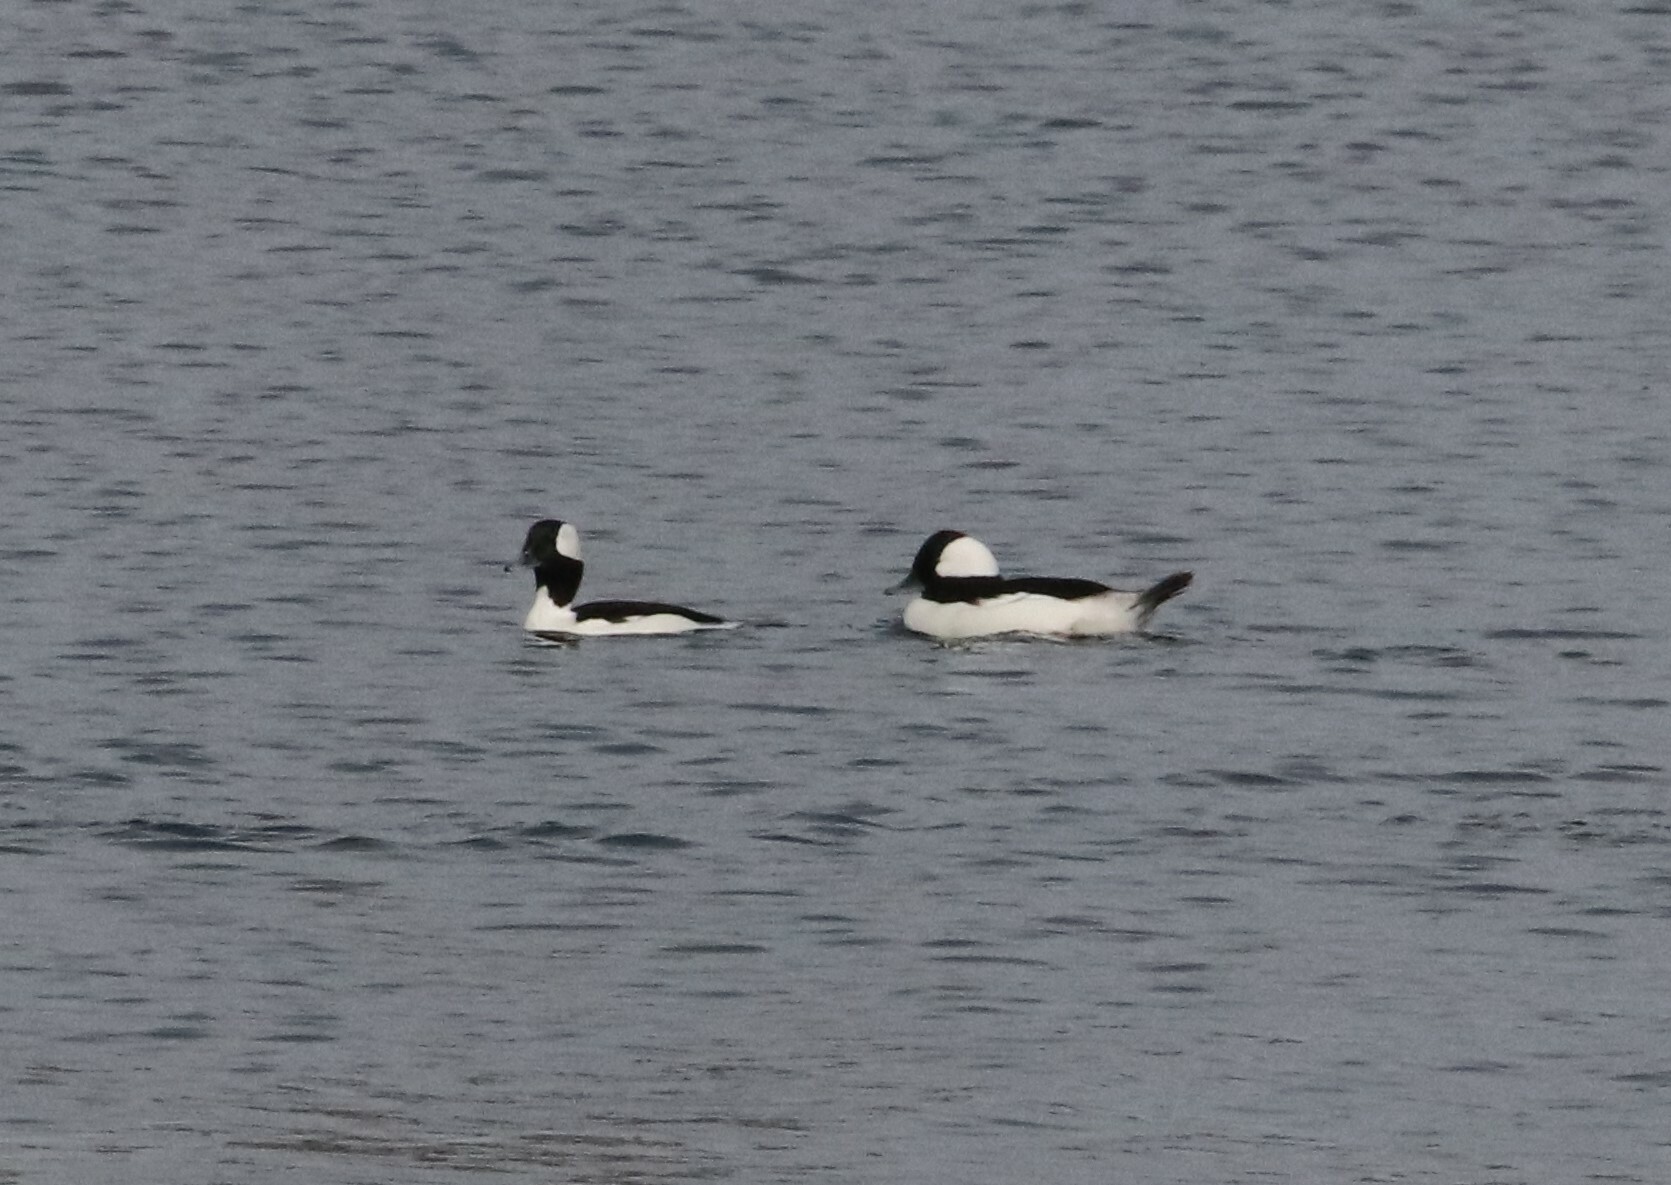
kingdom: Animalia
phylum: Chordata
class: Aves
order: Anseriformes
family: Anatidae
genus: Bucephala
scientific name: Bucephala albeola
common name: Bufflehead
